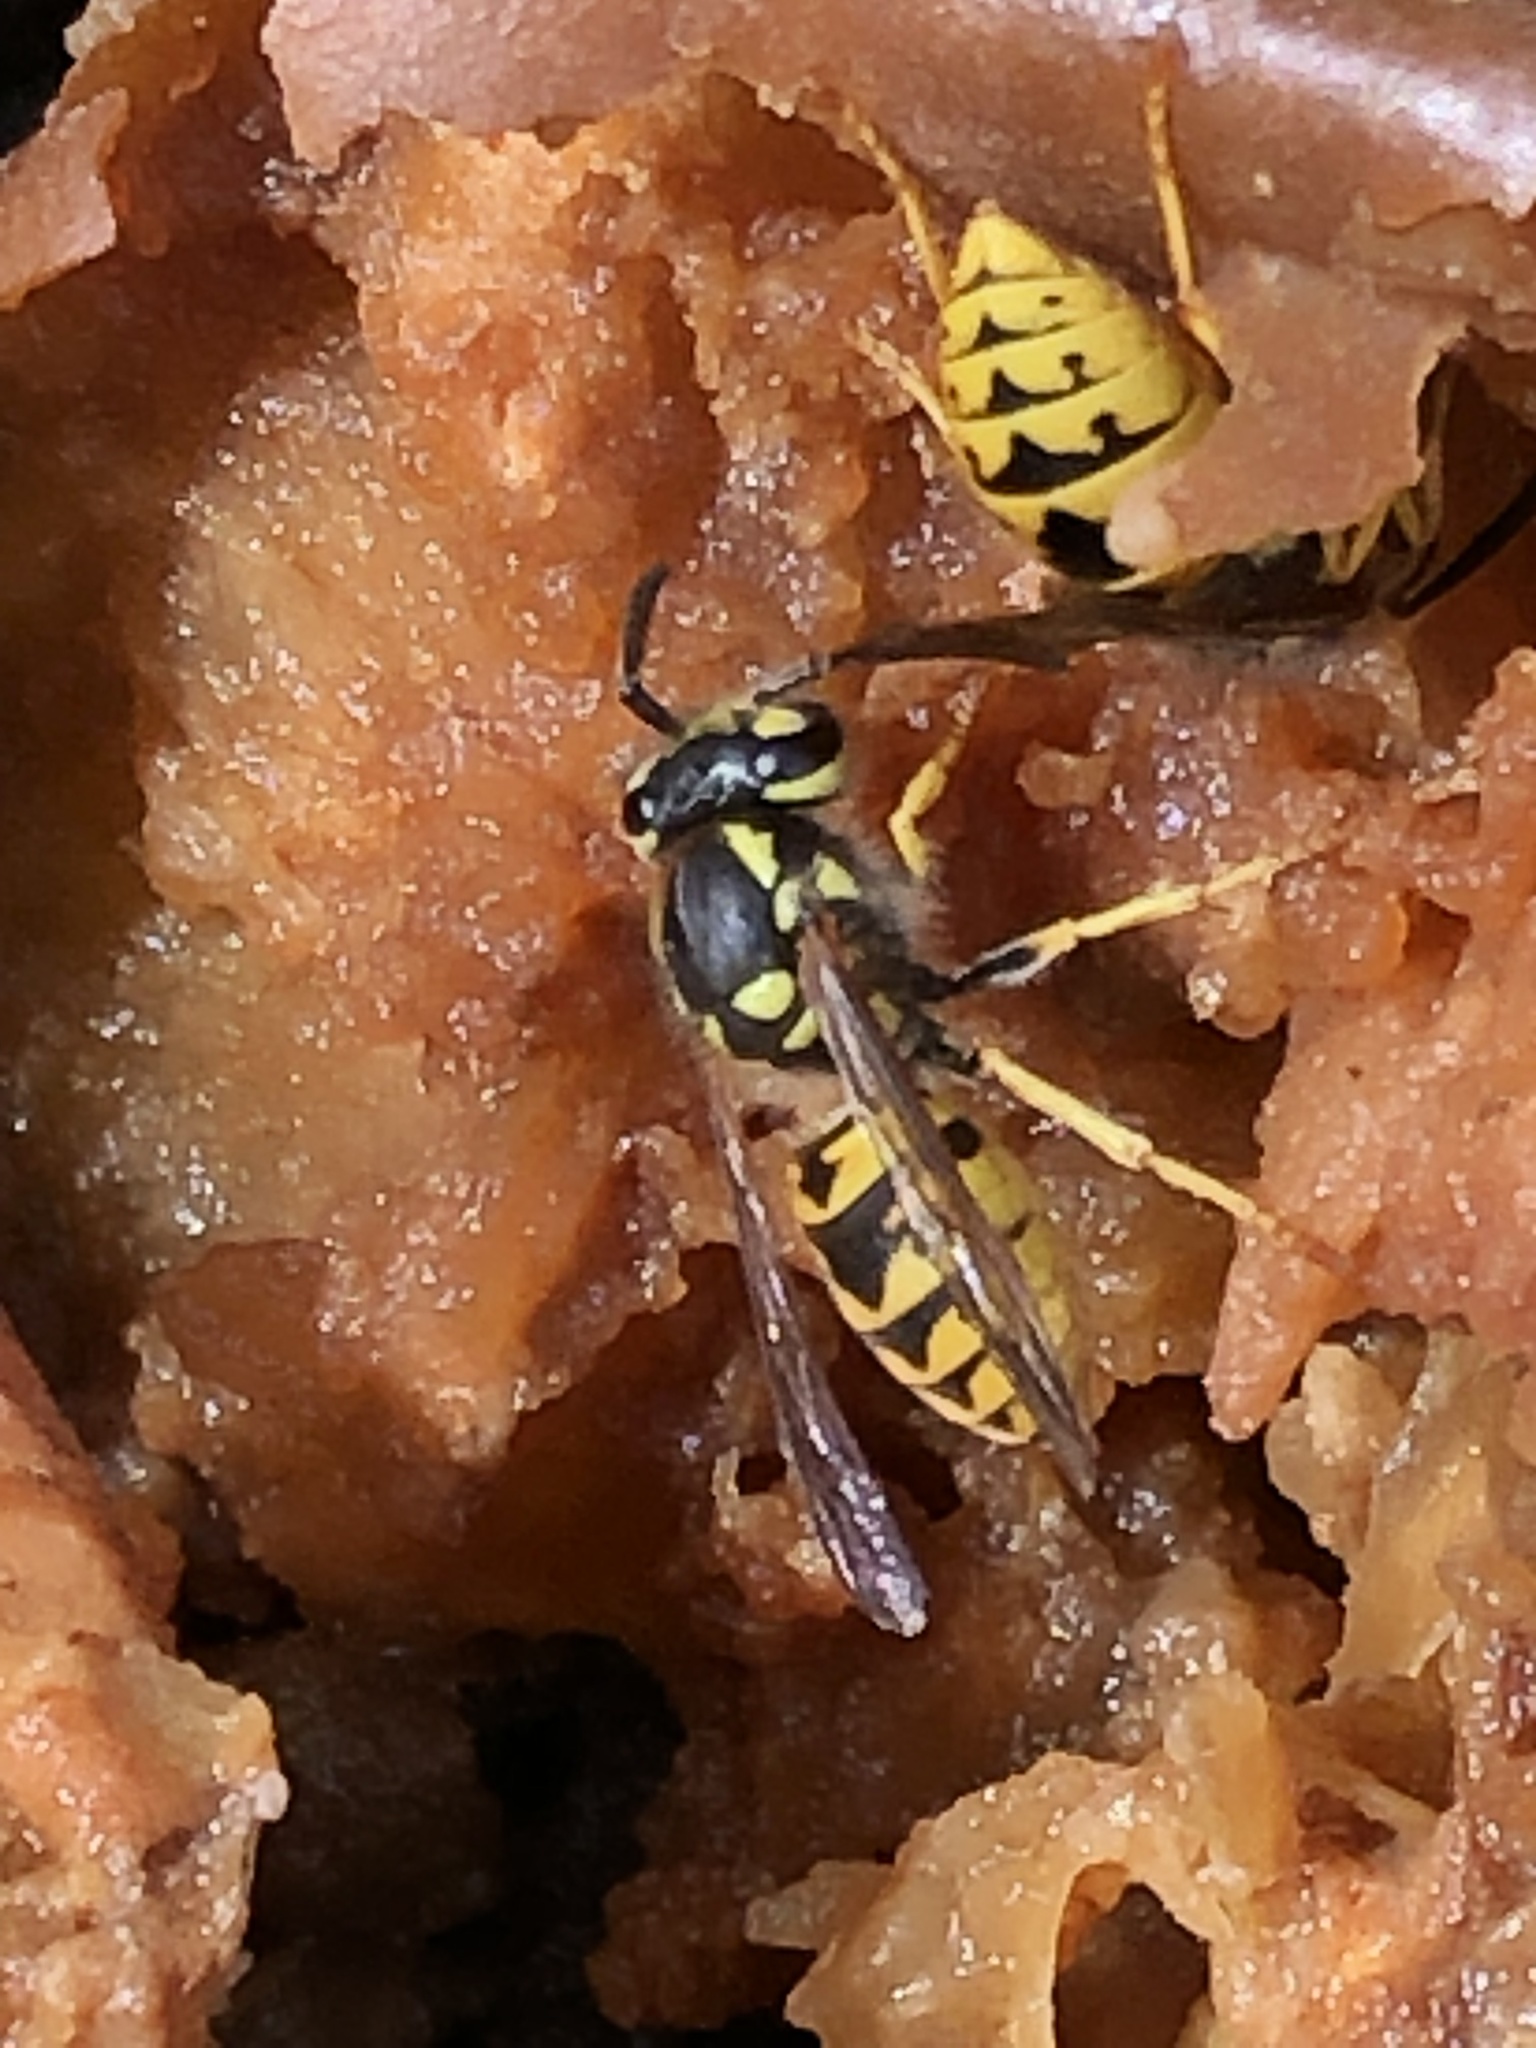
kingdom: Animalia
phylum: Arthropoda
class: Insecta
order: Hymenoptera
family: Vespidae
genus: Vespula
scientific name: Vespula germanica
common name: German wasp
